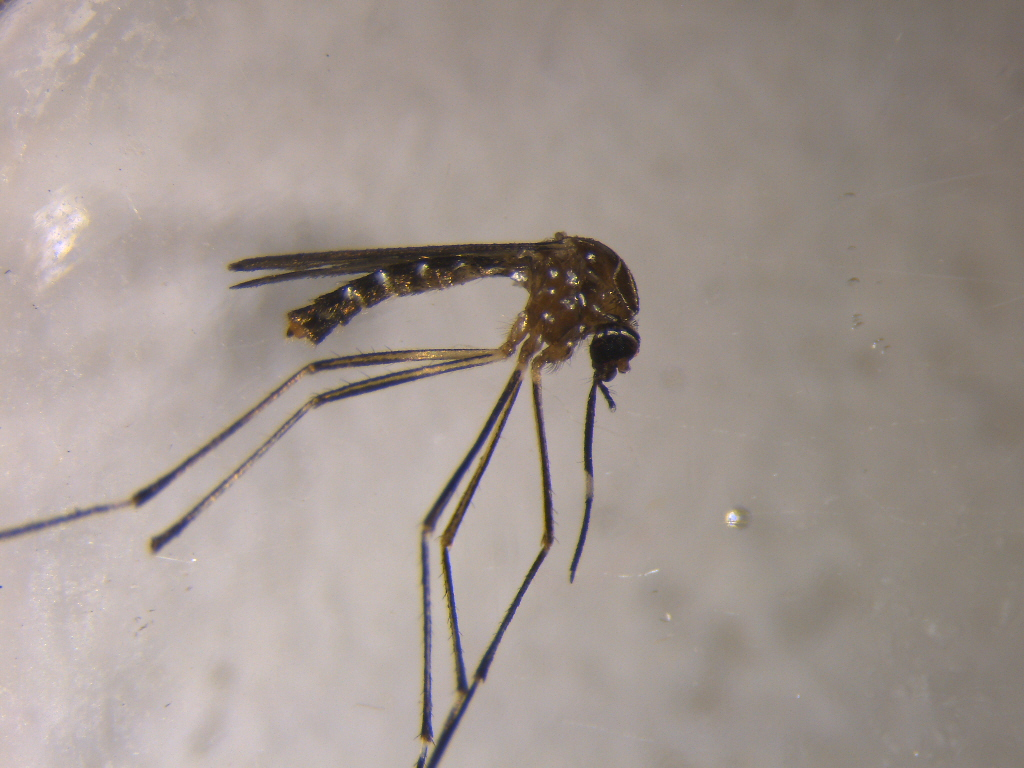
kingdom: Animalia
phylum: Arthropoda
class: Insecta
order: Diptera
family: Culicidae
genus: Aedes
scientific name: Aedes notoscriptus
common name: Australian backyard mosquito
